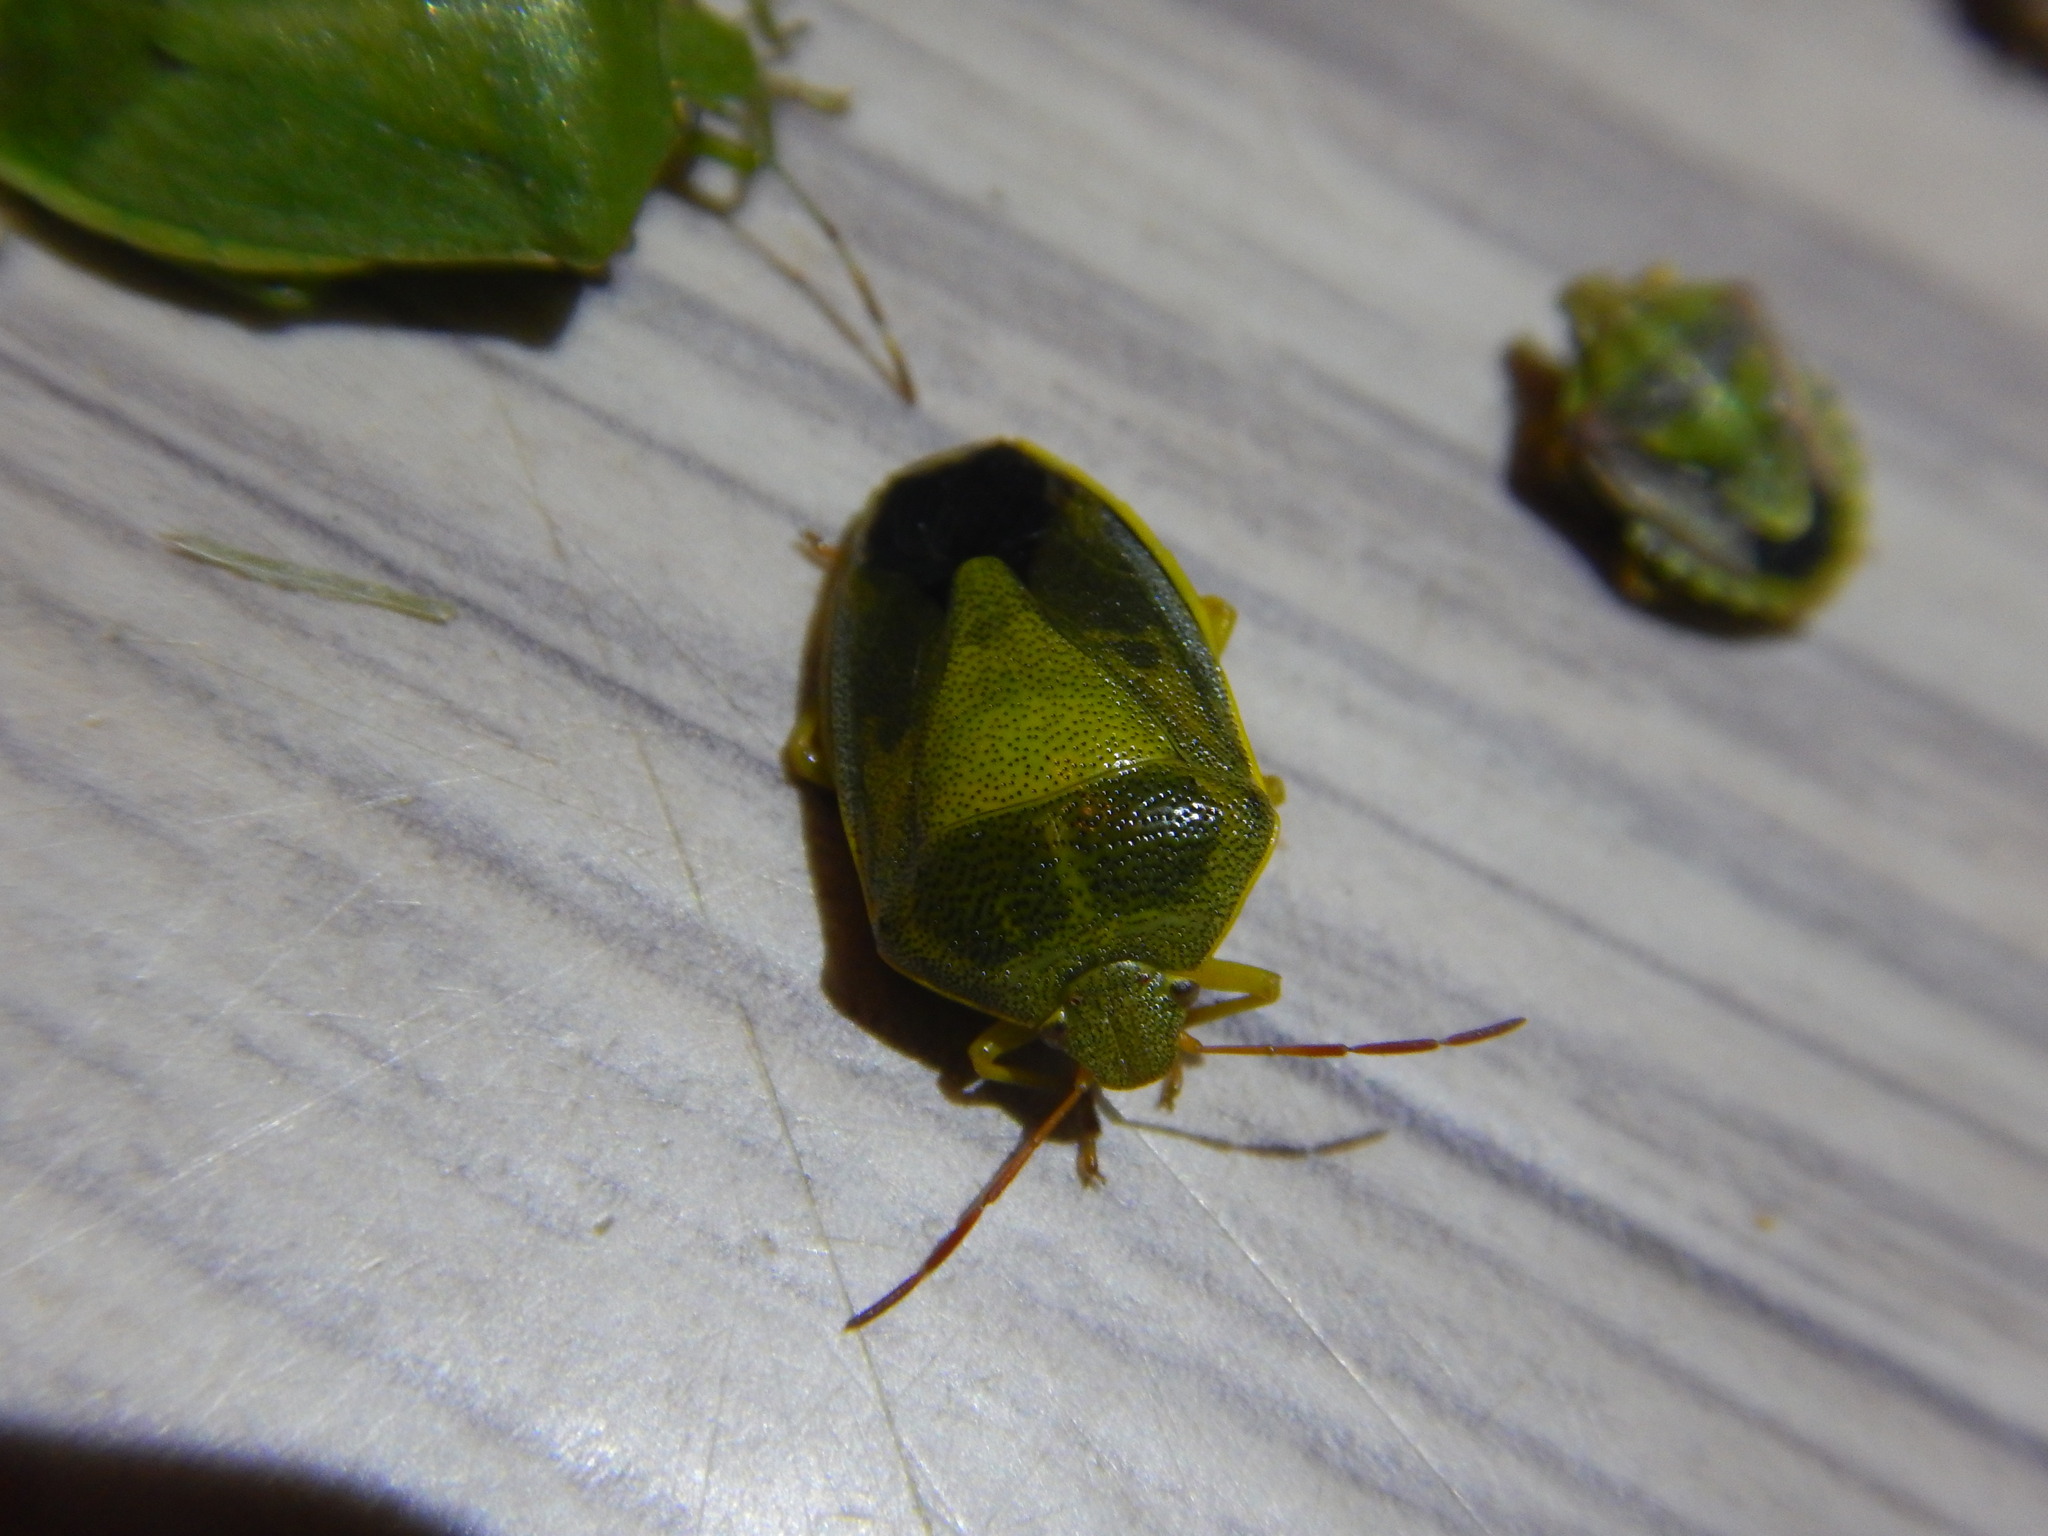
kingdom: Animalia
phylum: Arthropoda
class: Insecta
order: Hemiptera
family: Pentatomidae
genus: Piezodorus
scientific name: Piezodorus lituratus
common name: Stink bug
